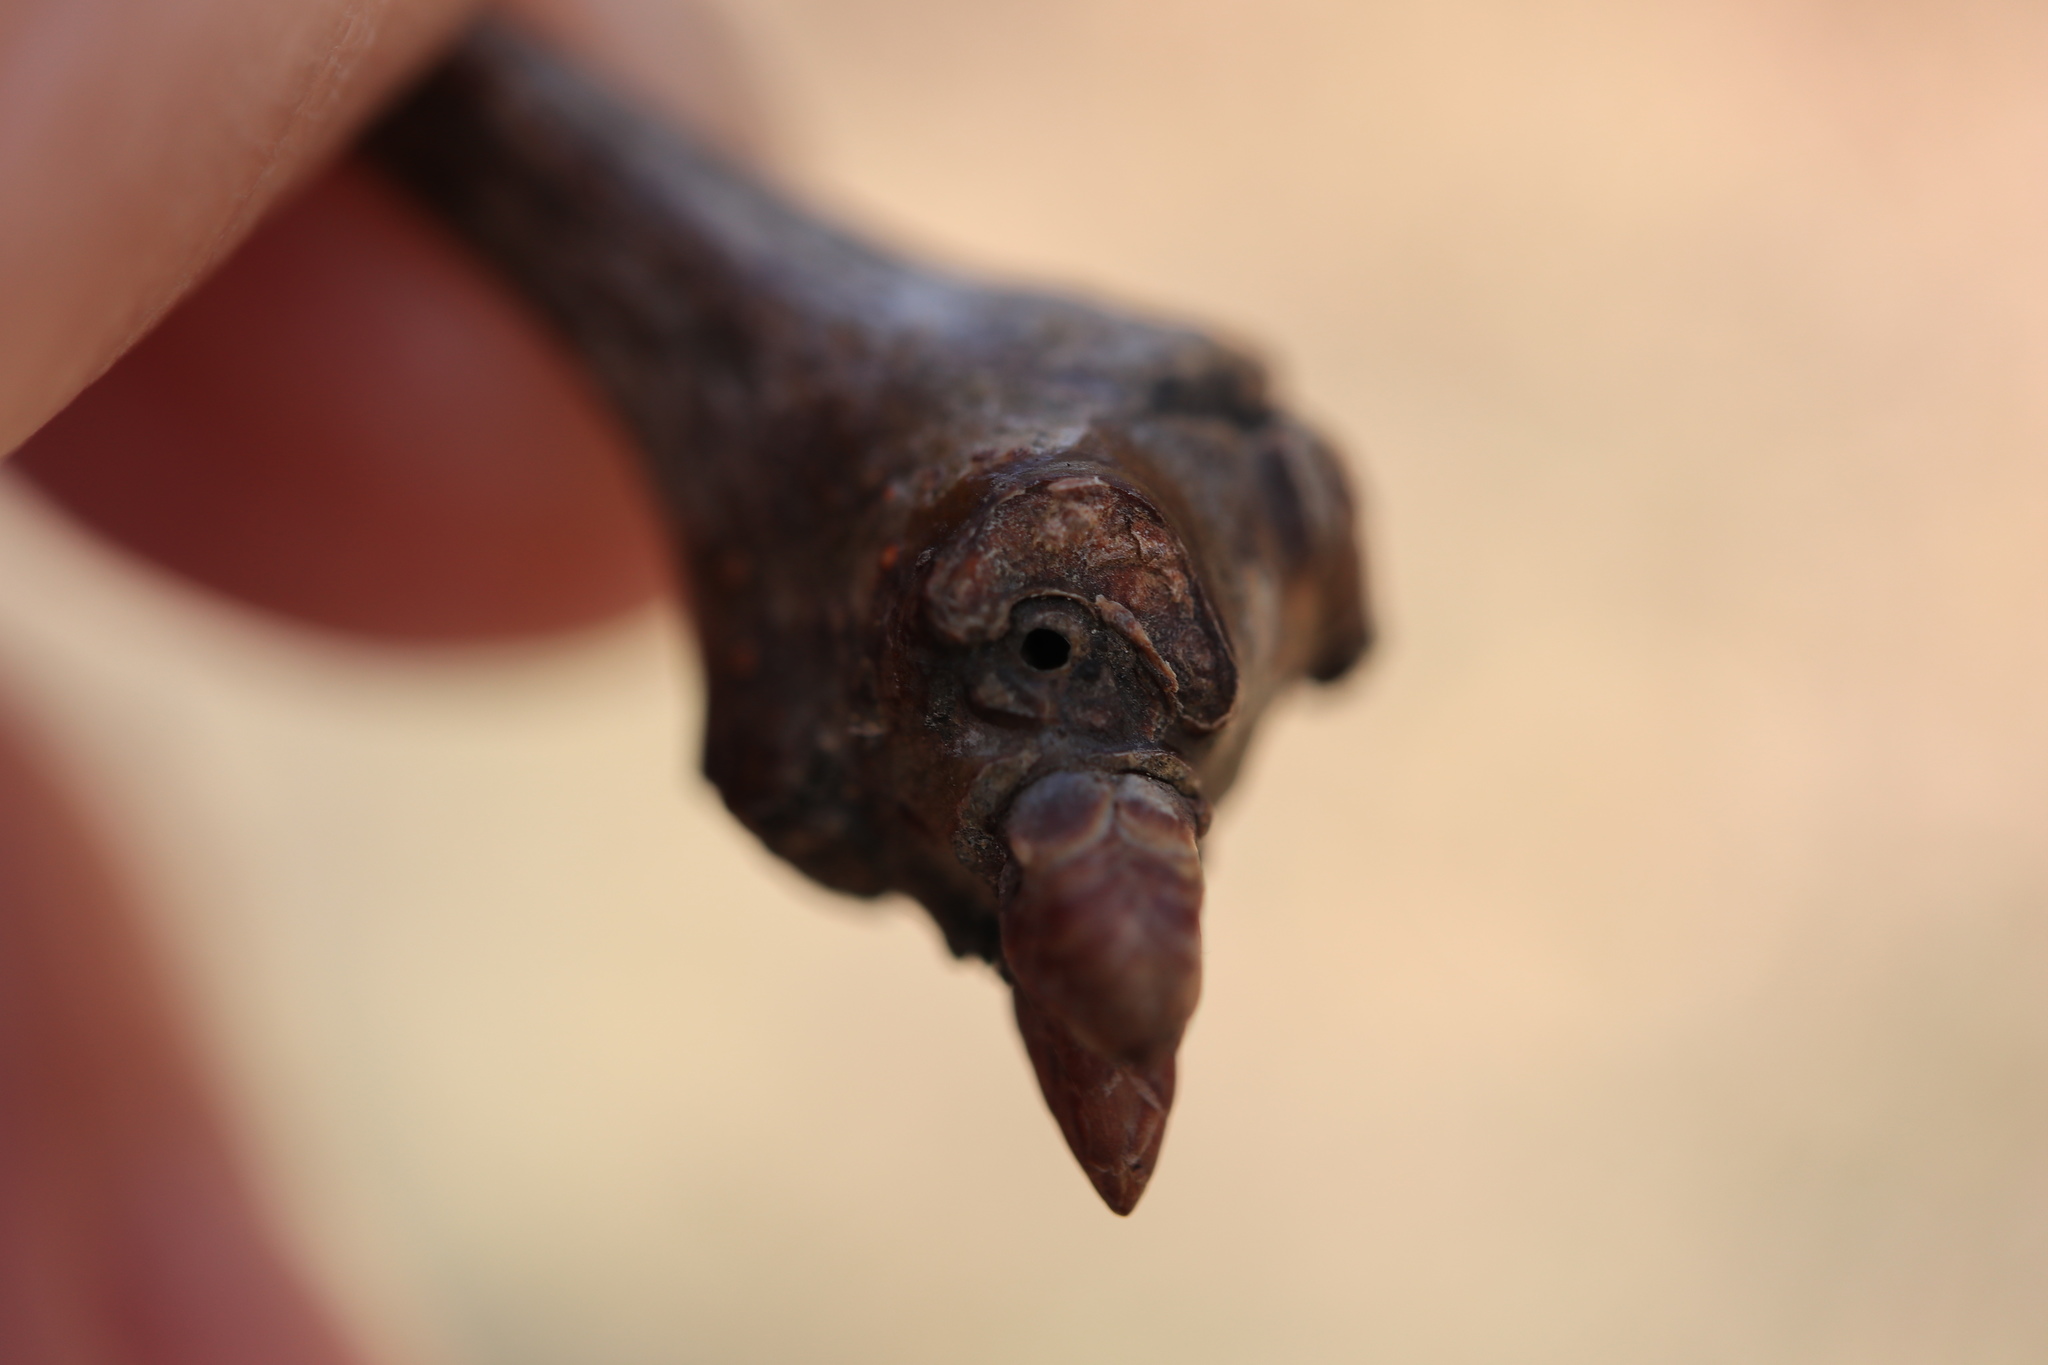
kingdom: Animalia
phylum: Arthropoda
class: Insecta
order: Hymenoptera
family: Cynipidae
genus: Neuroterus
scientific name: Neuroterus
